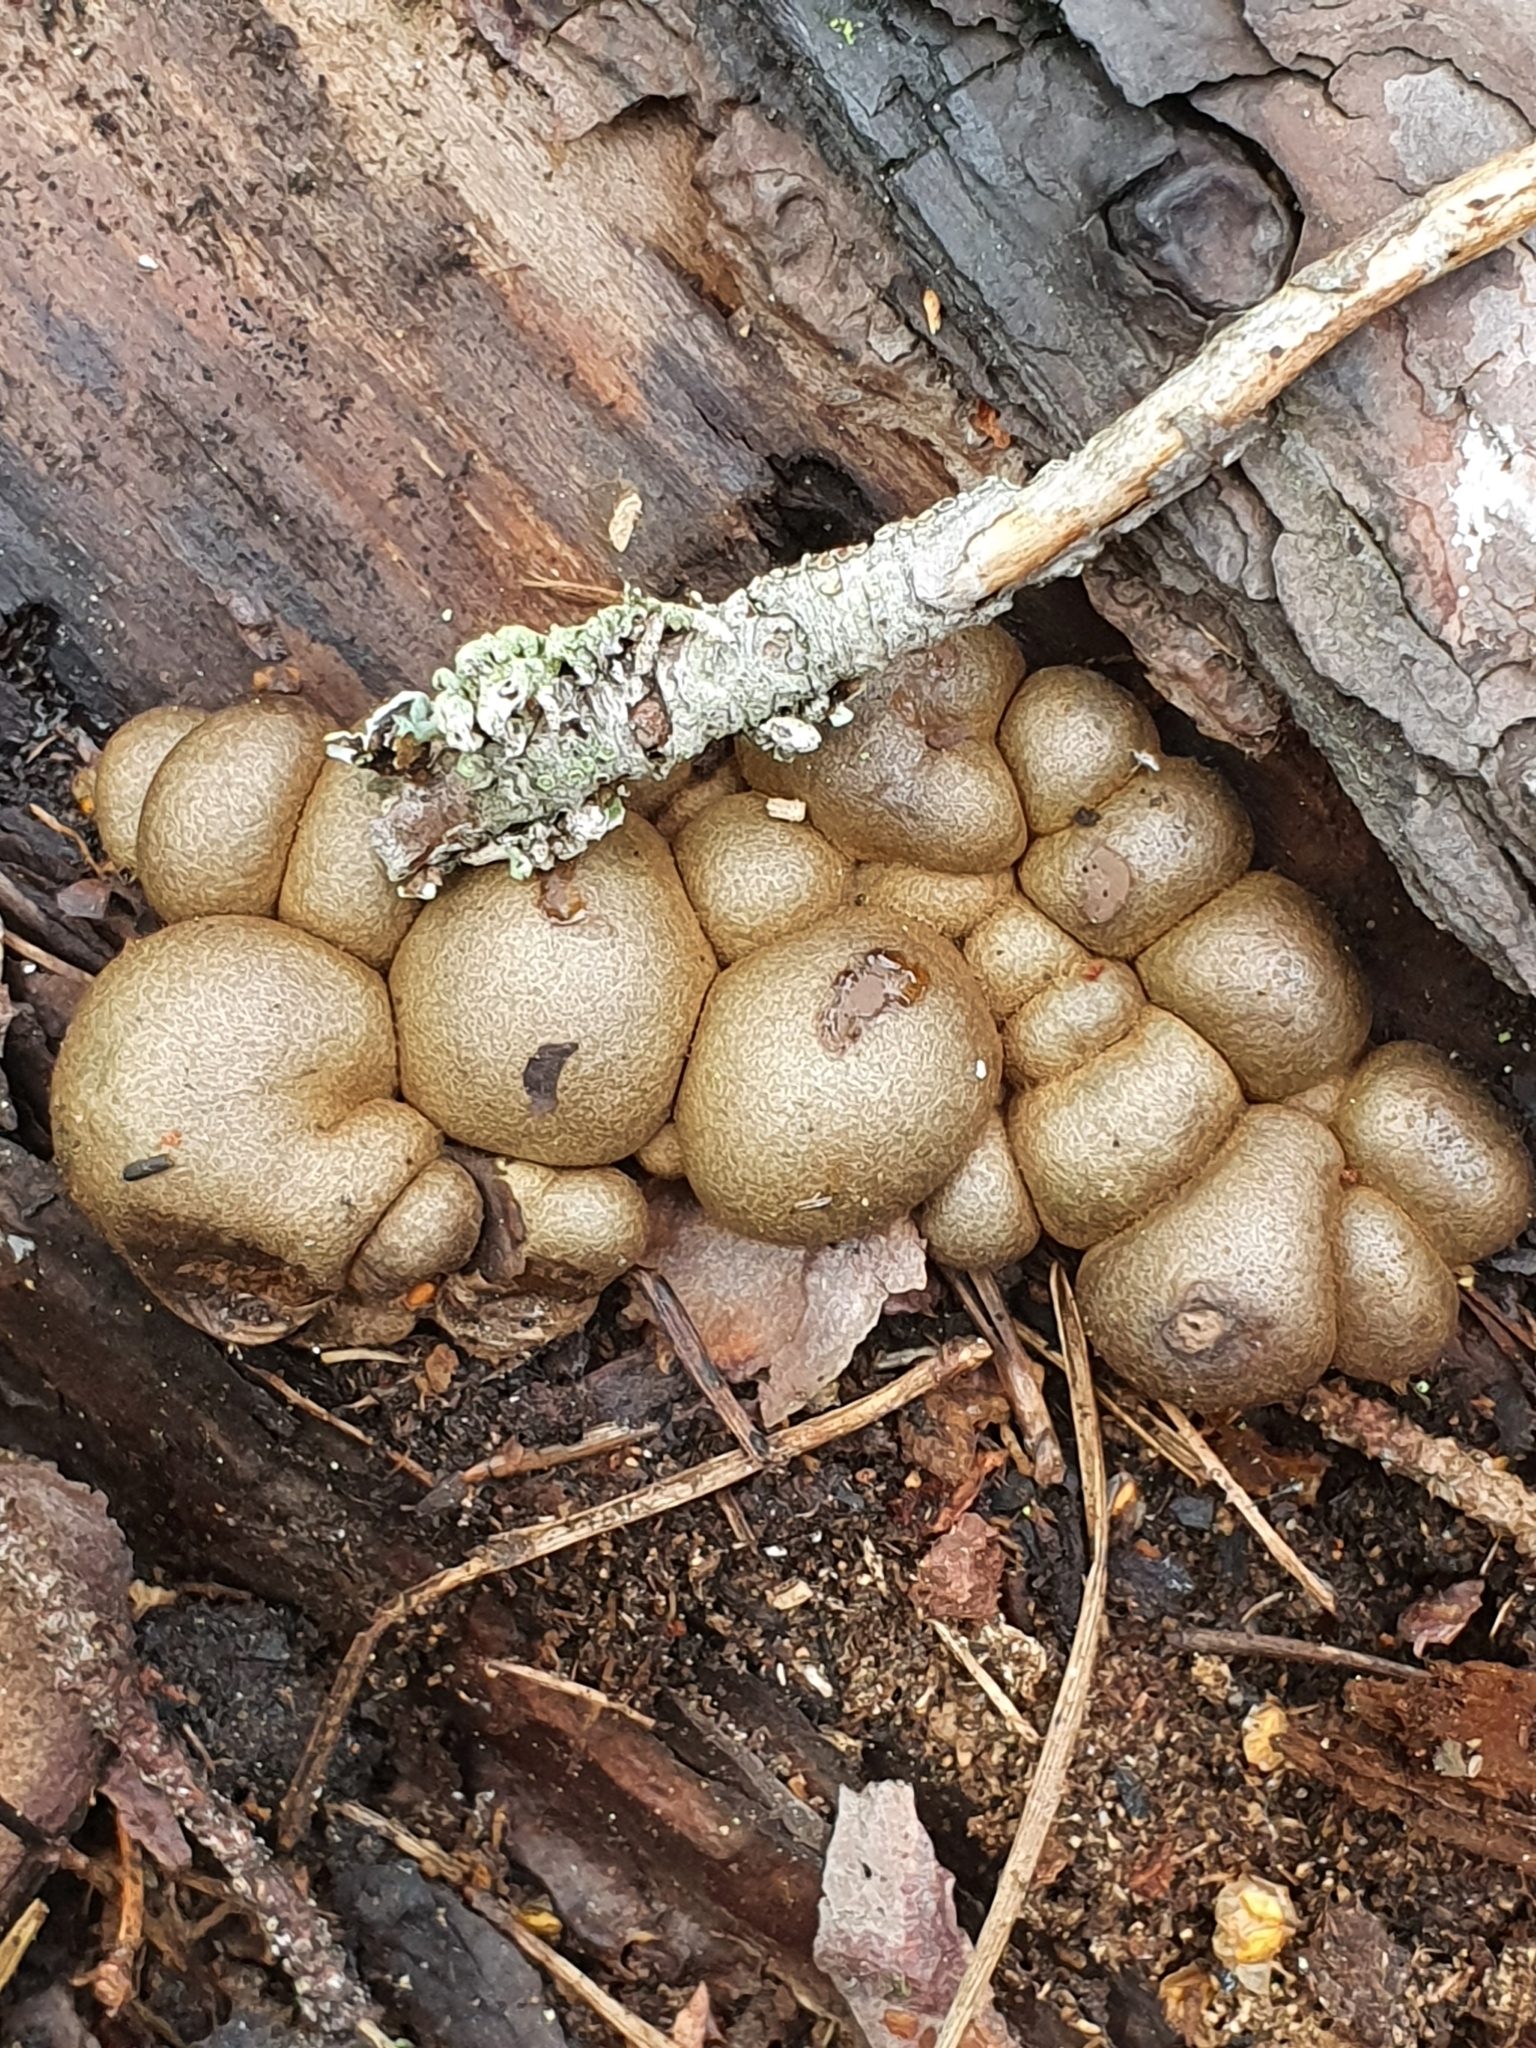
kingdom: Protozoa
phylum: Mycetozoa
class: Myxomycetes
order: Cribrariales
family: Tubiferaceae
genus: Lycogala
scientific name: Lycogala epidendrum
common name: Wolf's milk
